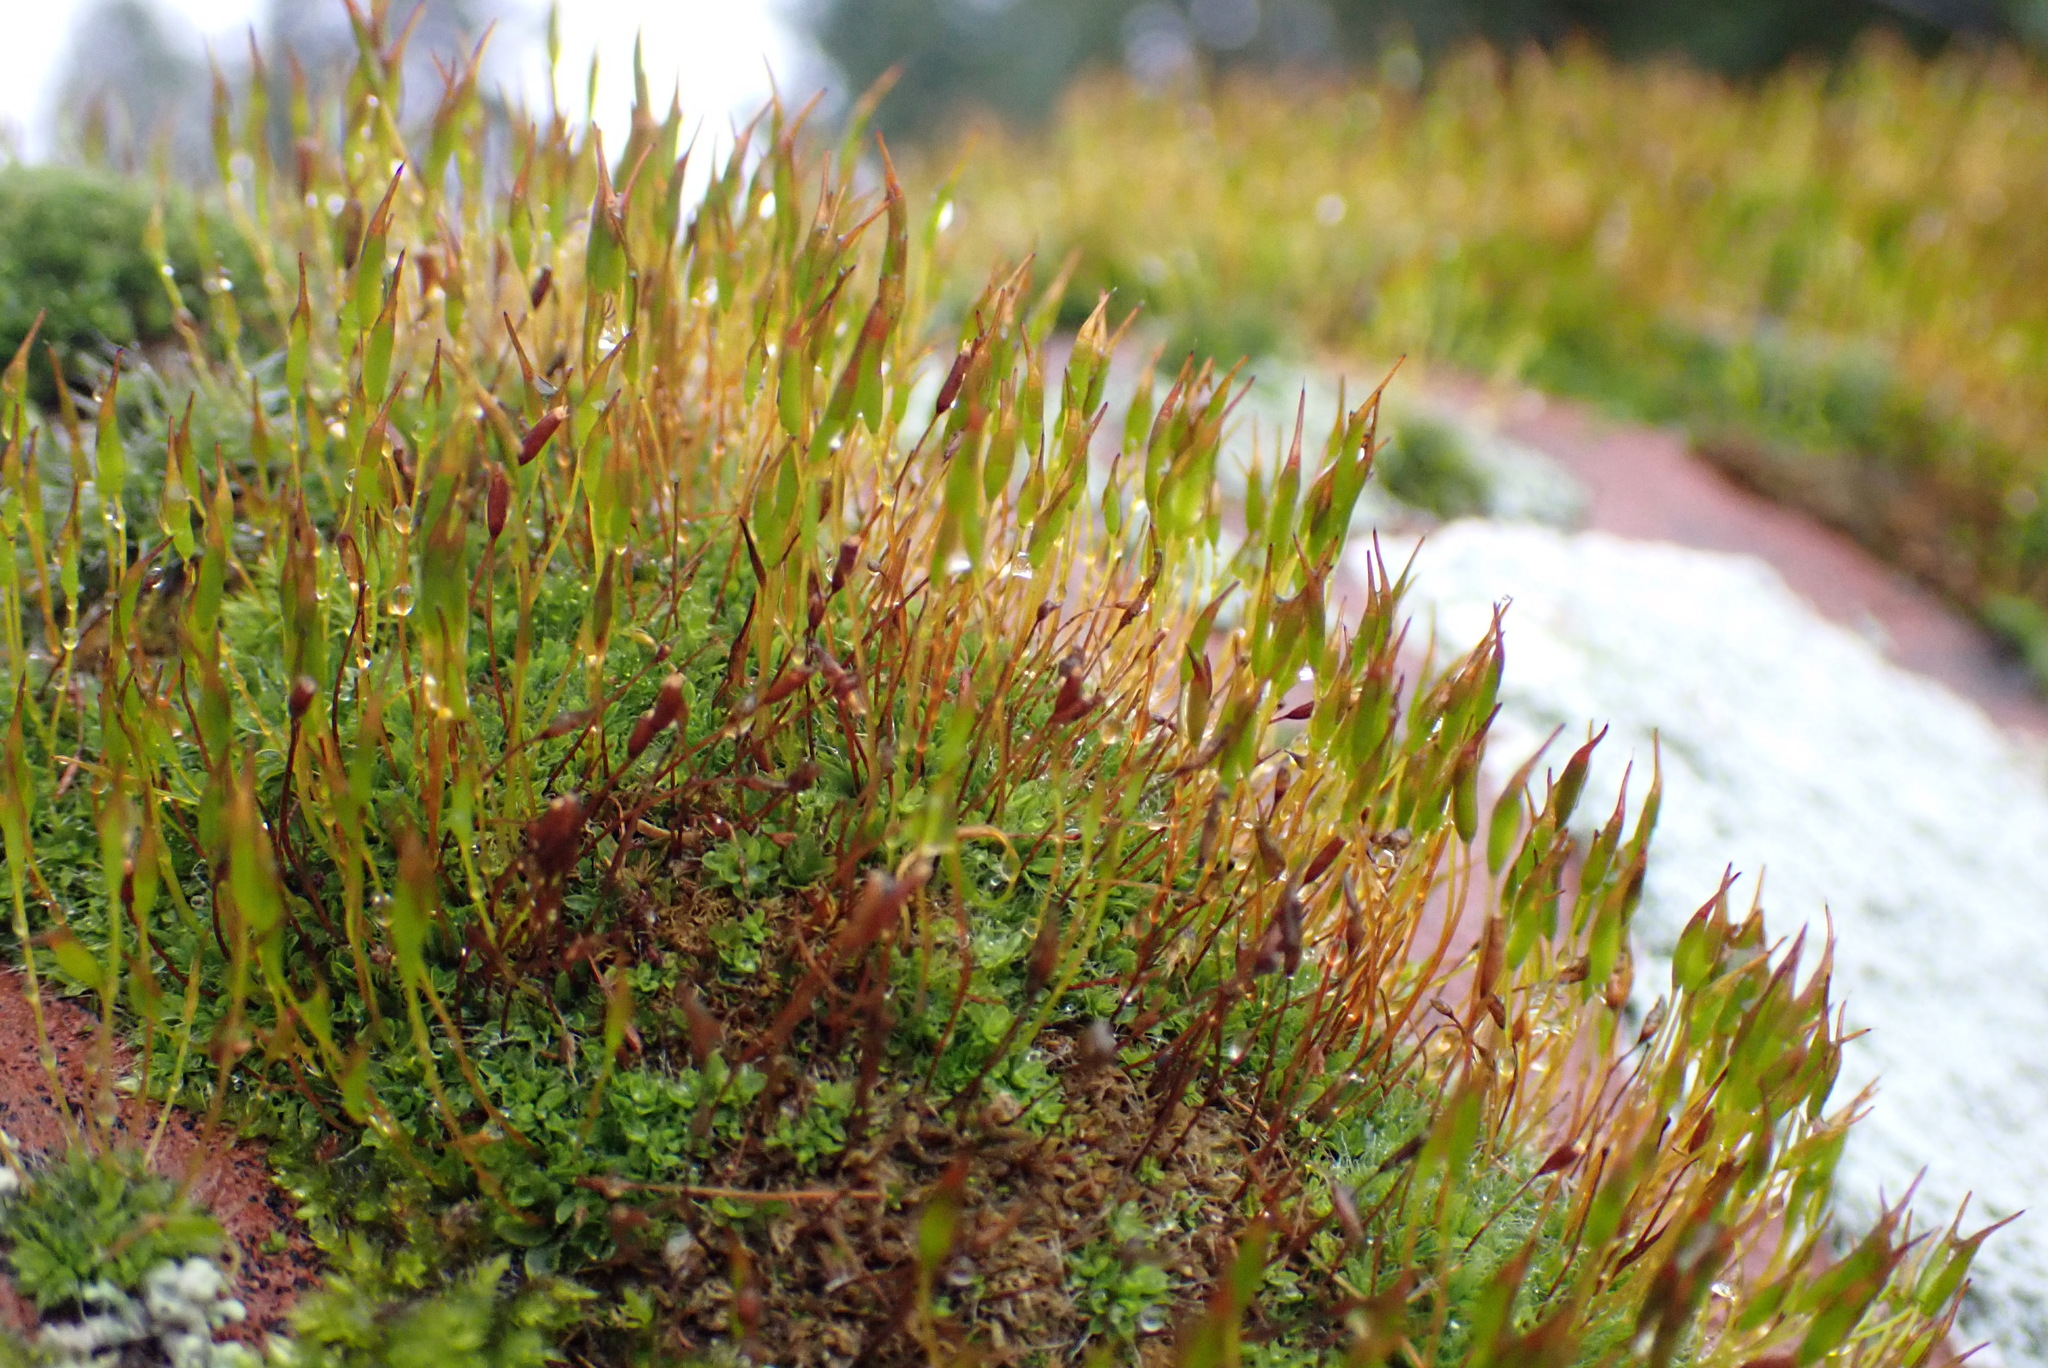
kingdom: Plantae
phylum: Bryophyta
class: Bryopsida
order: Pottiales
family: Pottiaceae
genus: Tortula
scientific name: Tortula muralis
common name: Wall screw-moss
